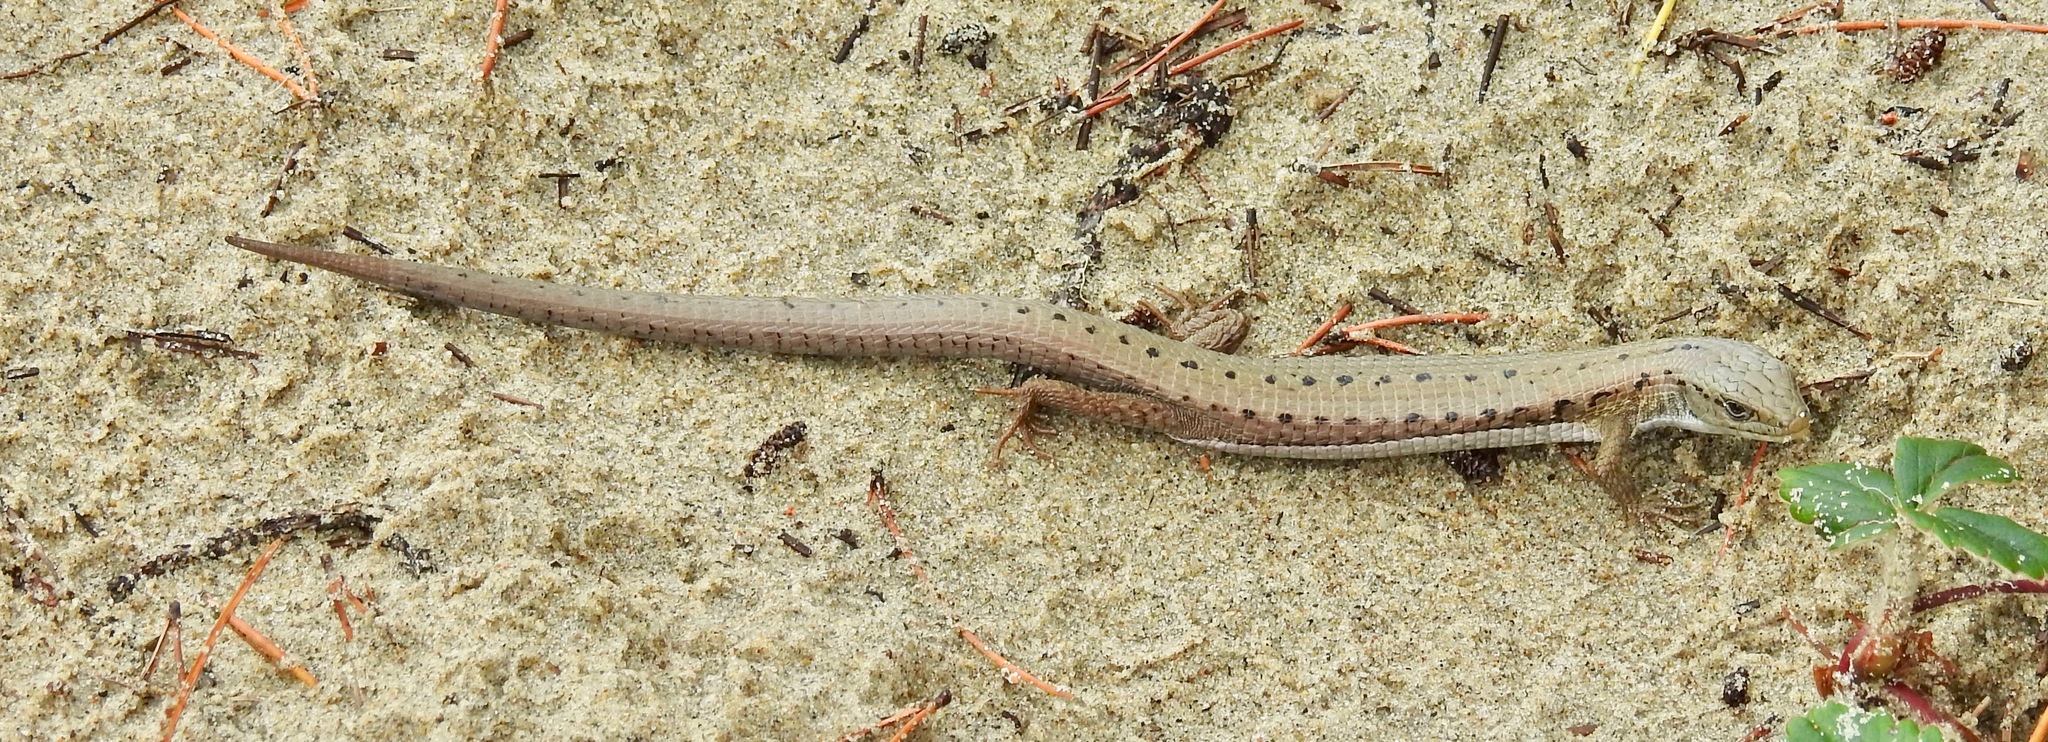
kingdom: Animalia
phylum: Chordata
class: Squamata
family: Anguidae
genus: Elgaria
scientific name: Elgaria coerulea
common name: Northern alligator lizard
